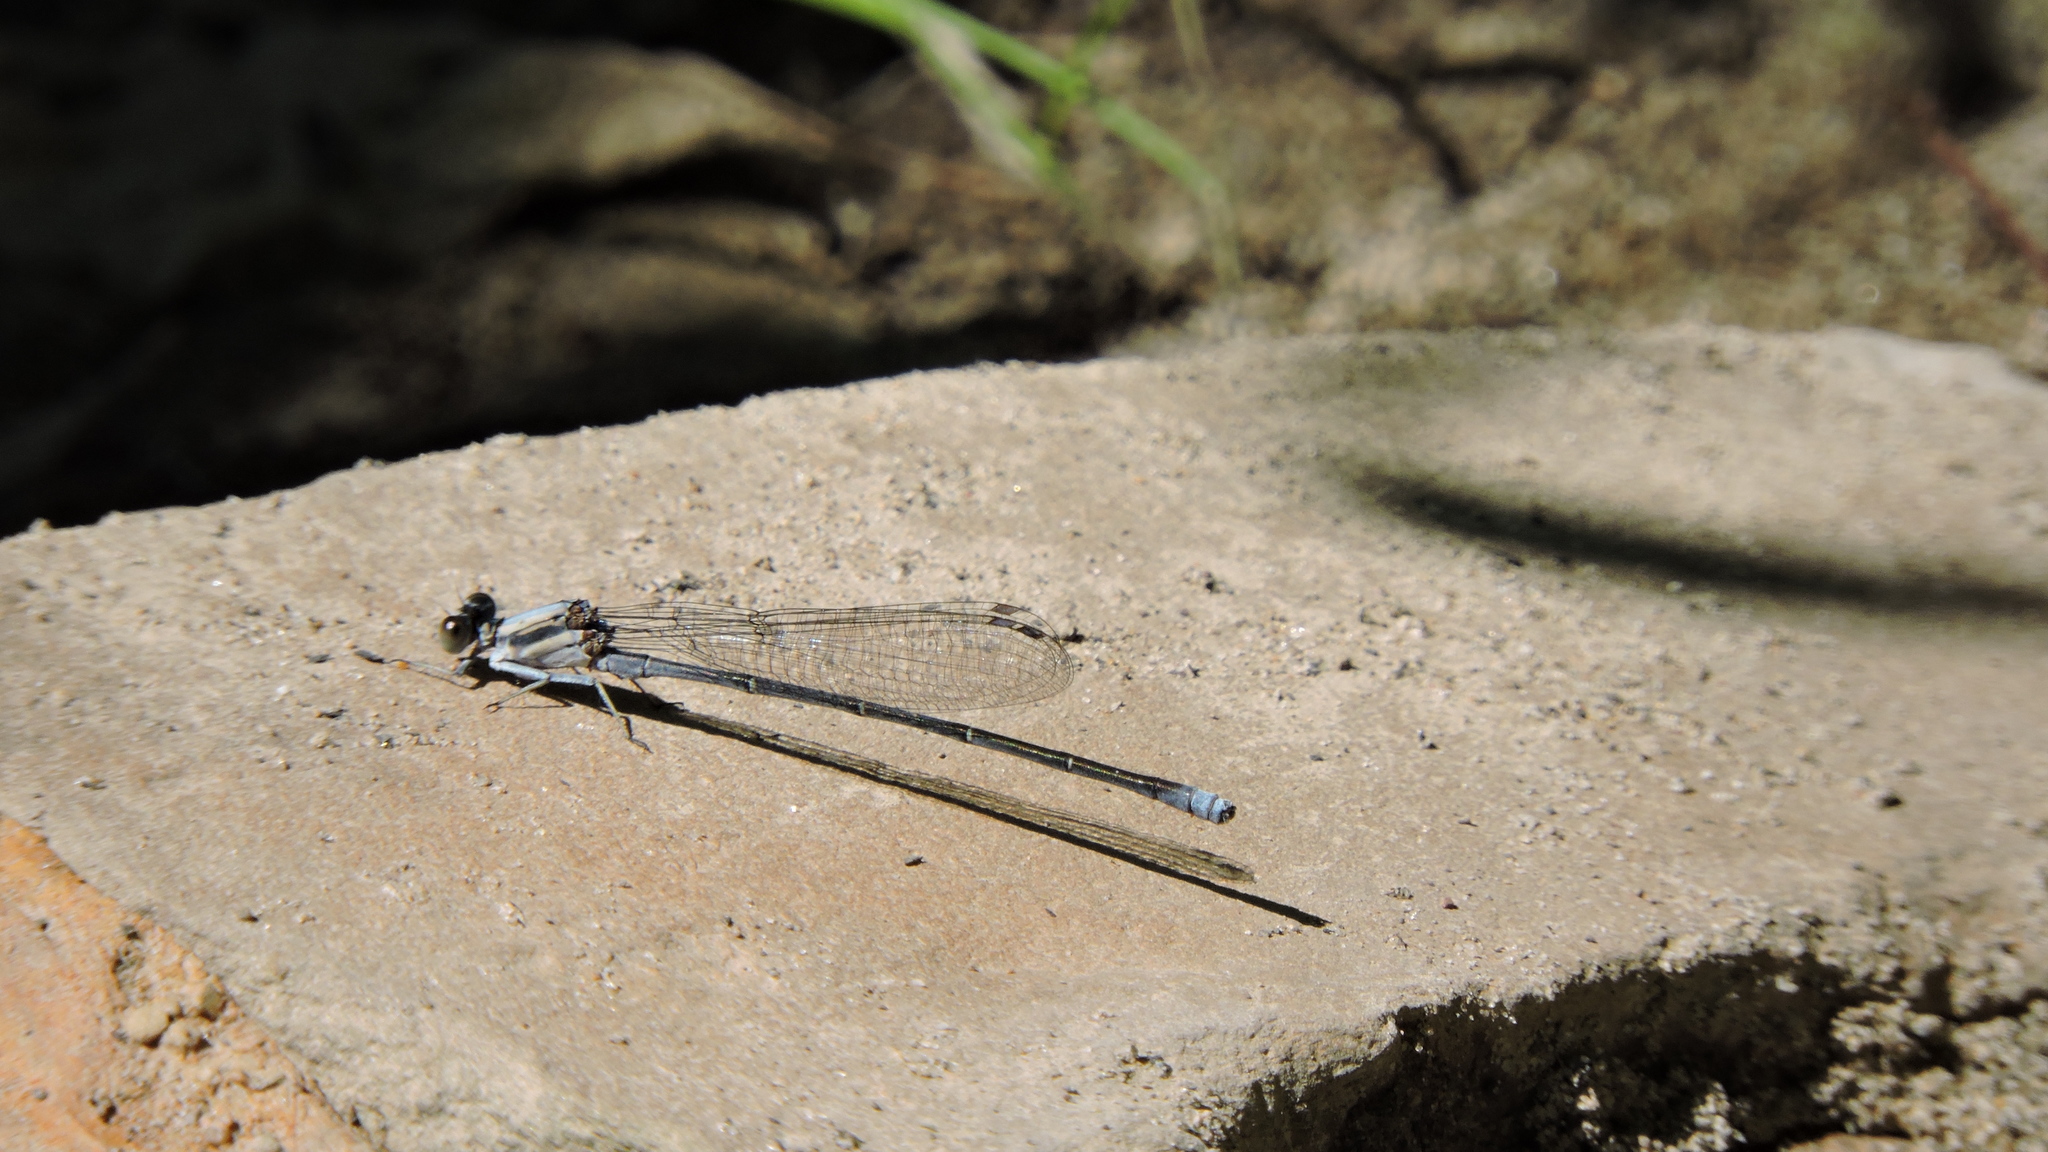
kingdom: Animalia
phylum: Arthropoda
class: Insecta
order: Odonata
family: Coenagrionidae
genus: Argia
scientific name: Argia moesta
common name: Powdered dancer
